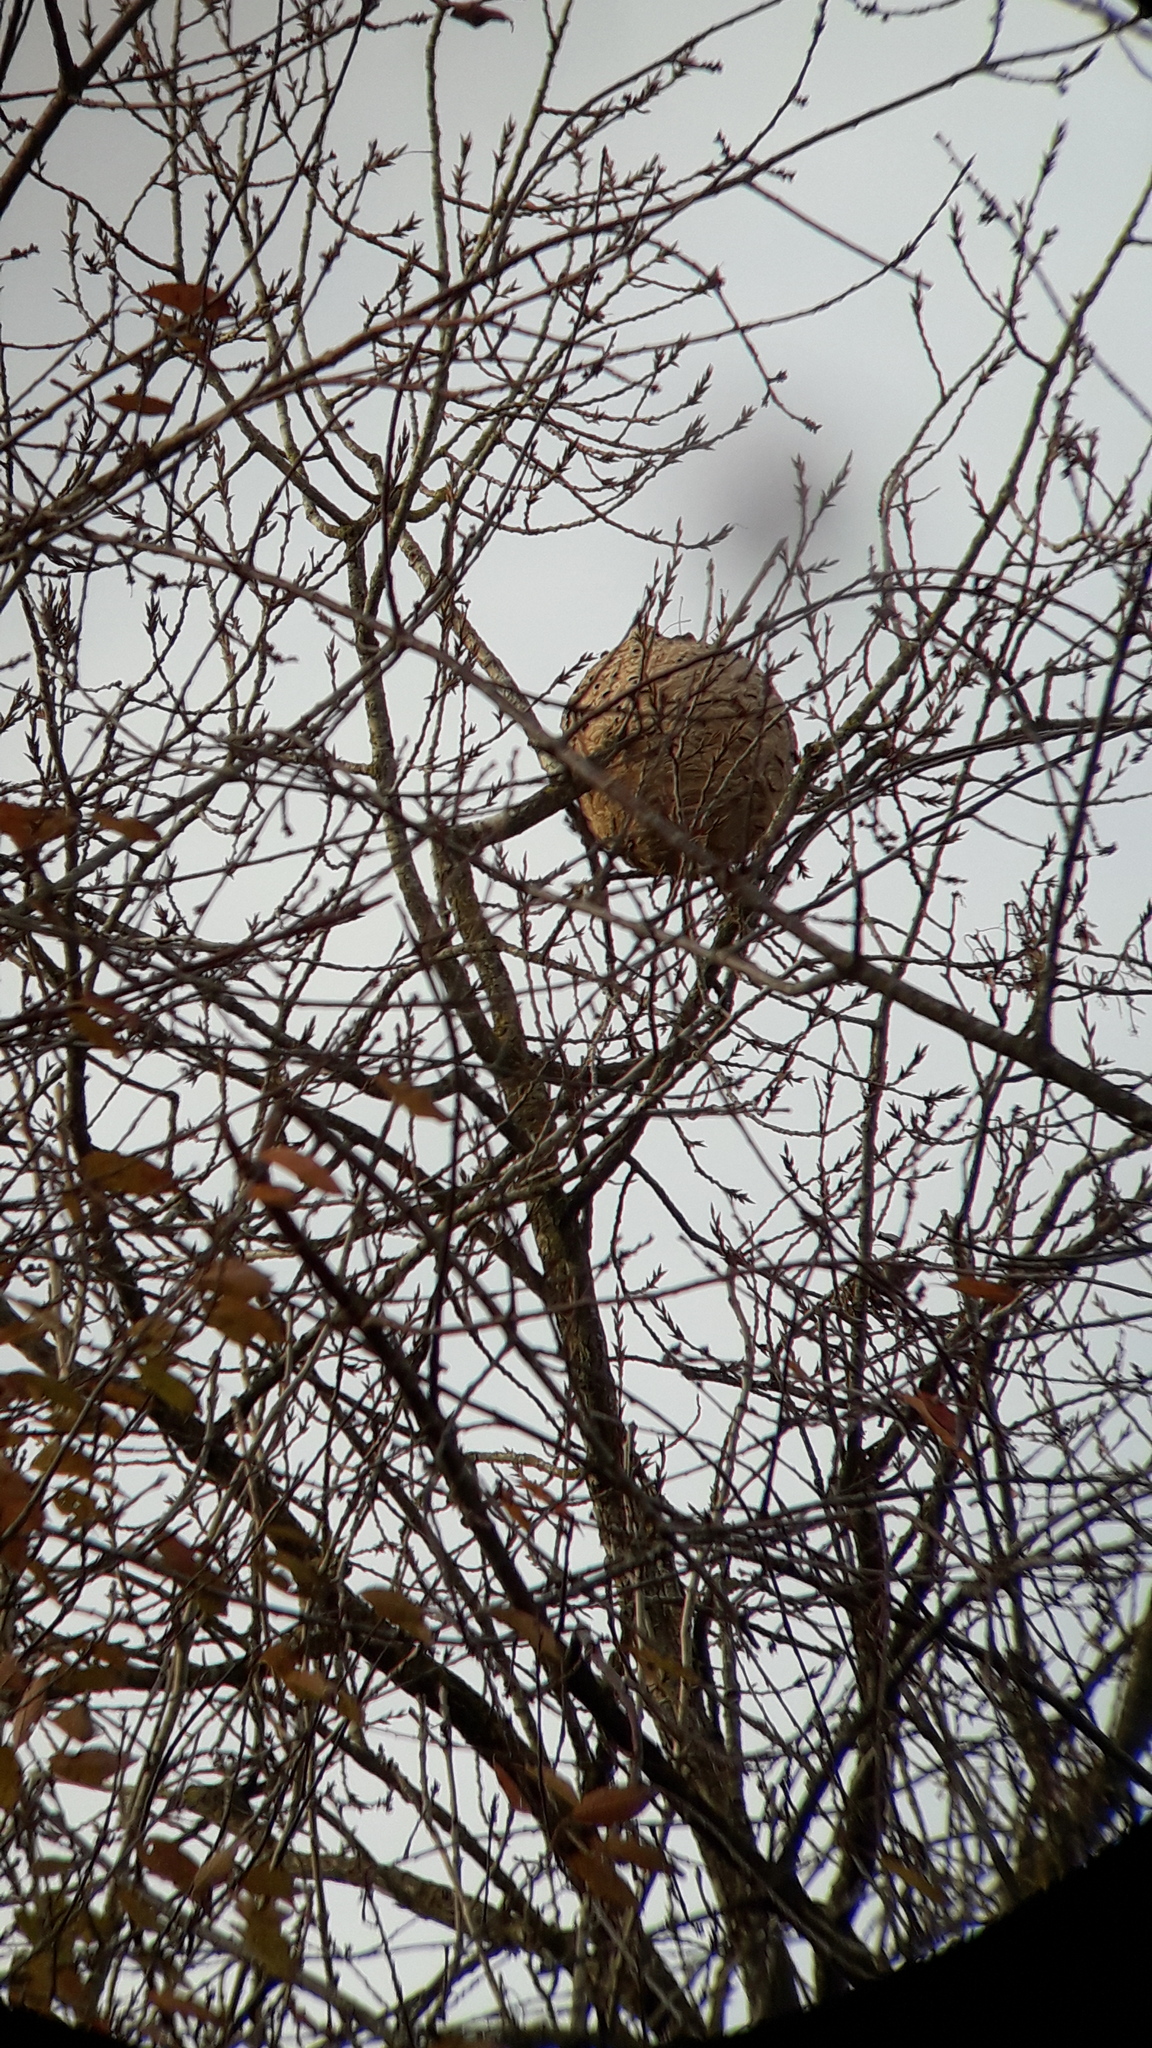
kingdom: Animalia
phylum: Arthropoda
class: Insecta
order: Hymenoptera
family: Vespidae
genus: Vespa
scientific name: Vespa velutina
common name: Asian hornet
